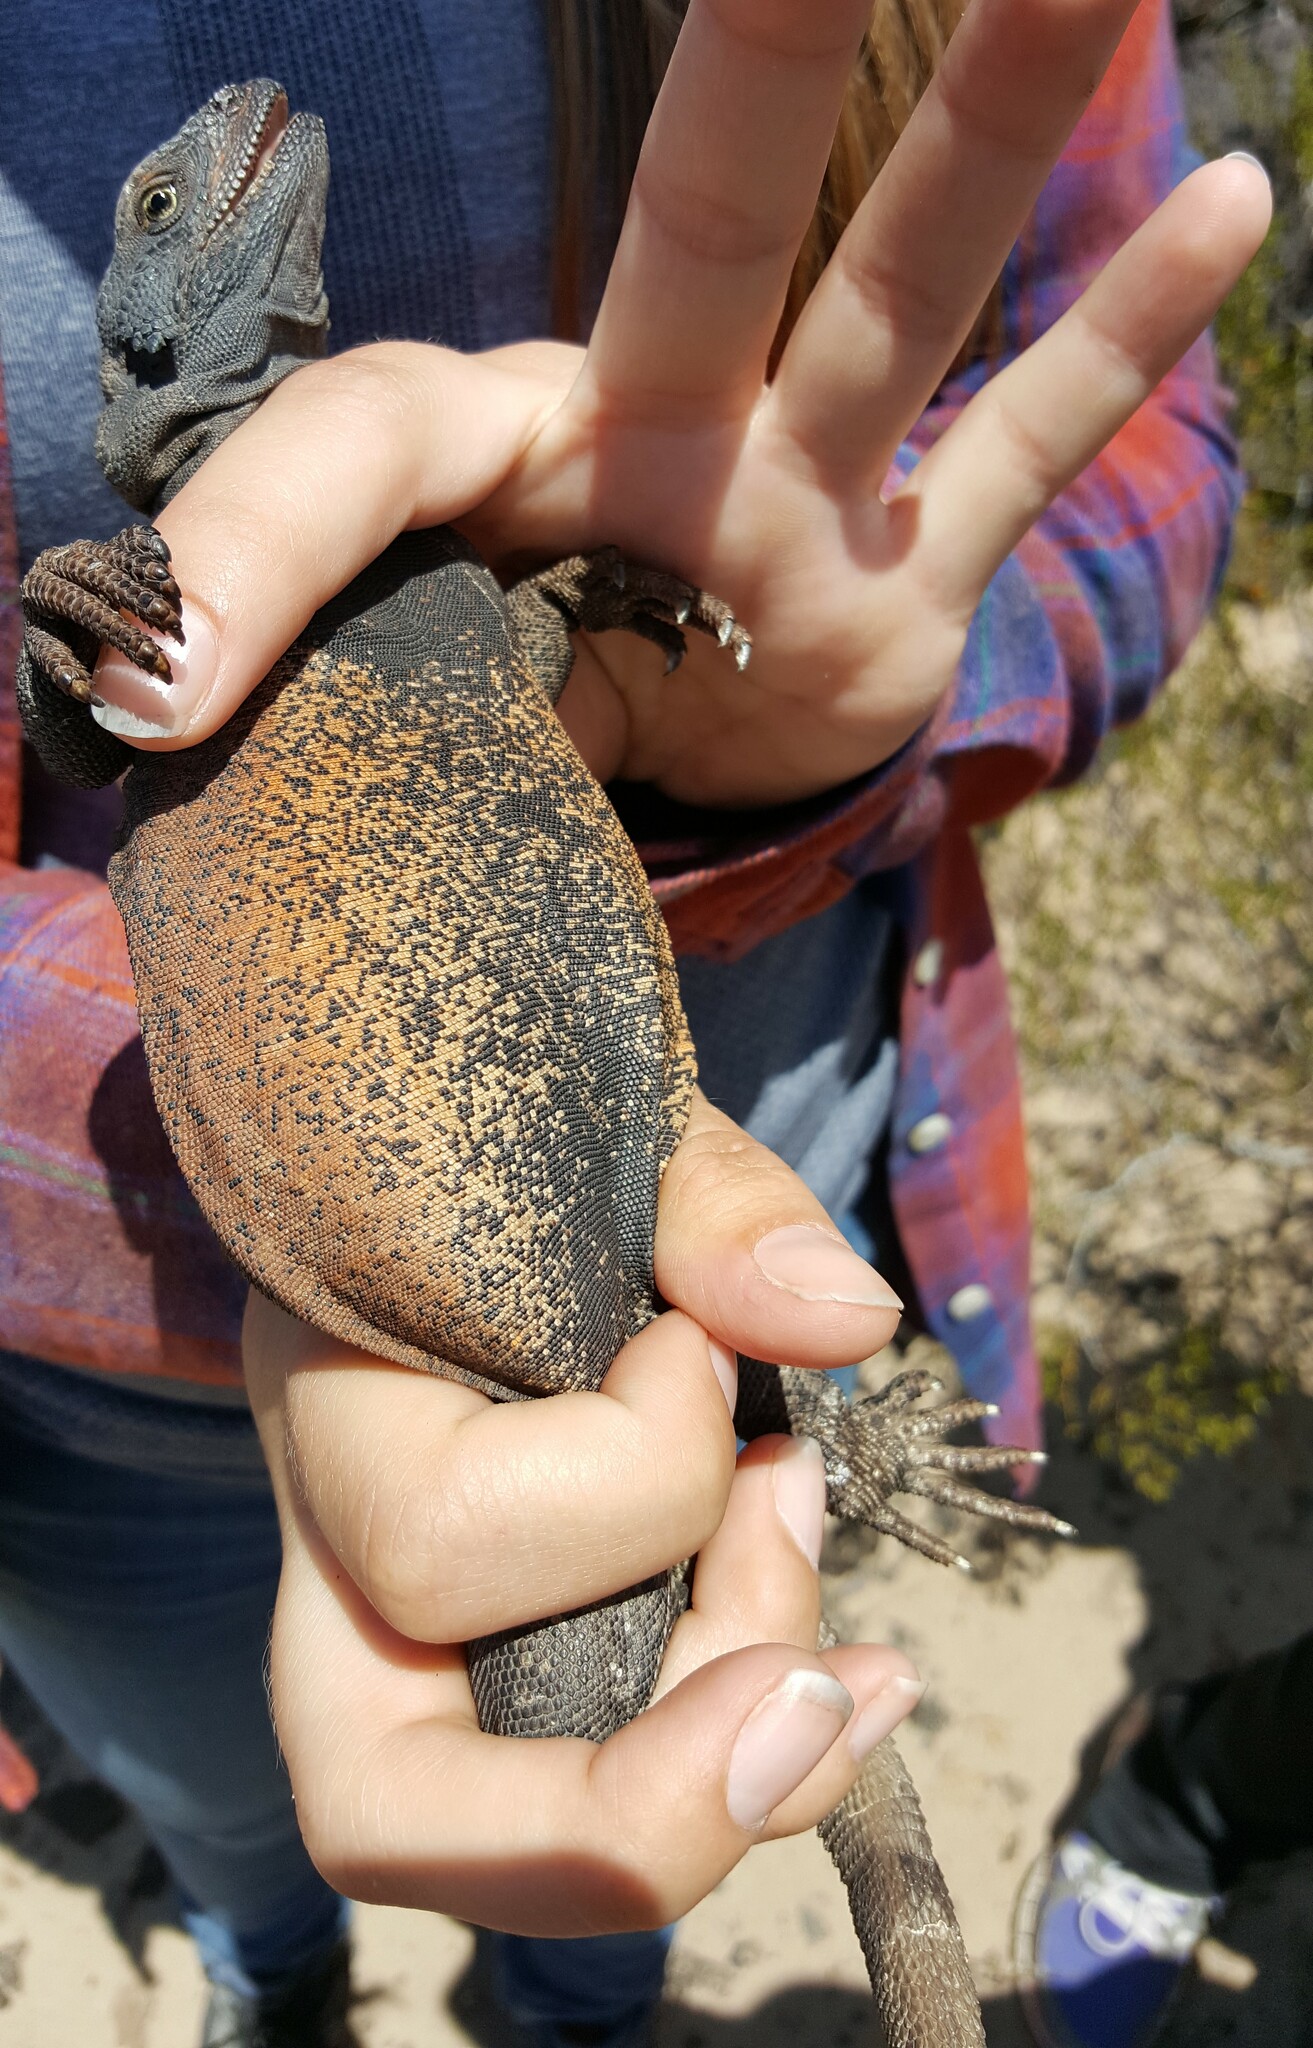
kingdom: Animalia
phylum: Chordata
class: Squamata
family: Iguanidae
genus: Sauromalus
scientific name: Sauromalus ater
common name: Northern chuckwalla
